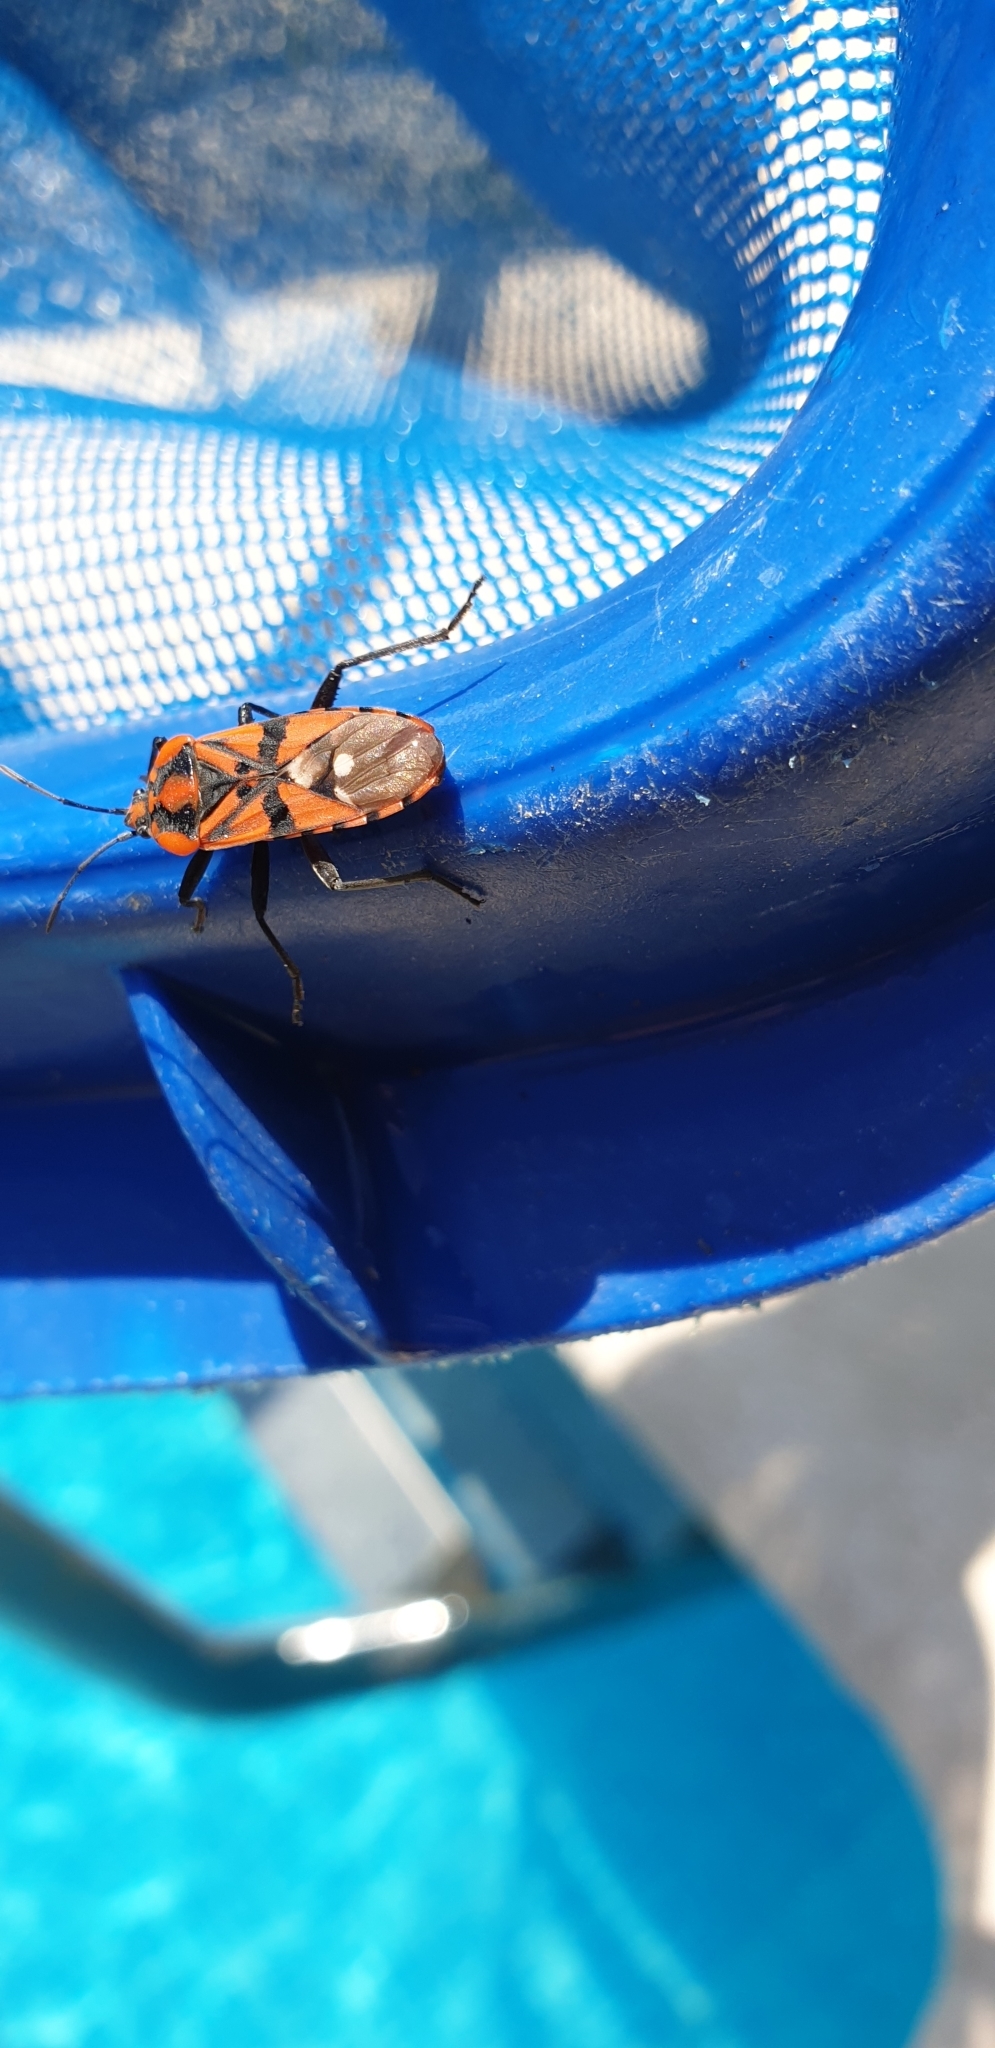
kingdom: Animalia
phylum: Arthropoda
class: Insecta
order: Hemiptera
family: Lygaeidae
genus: Spilostethus
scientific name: Spilostethus pandurus
